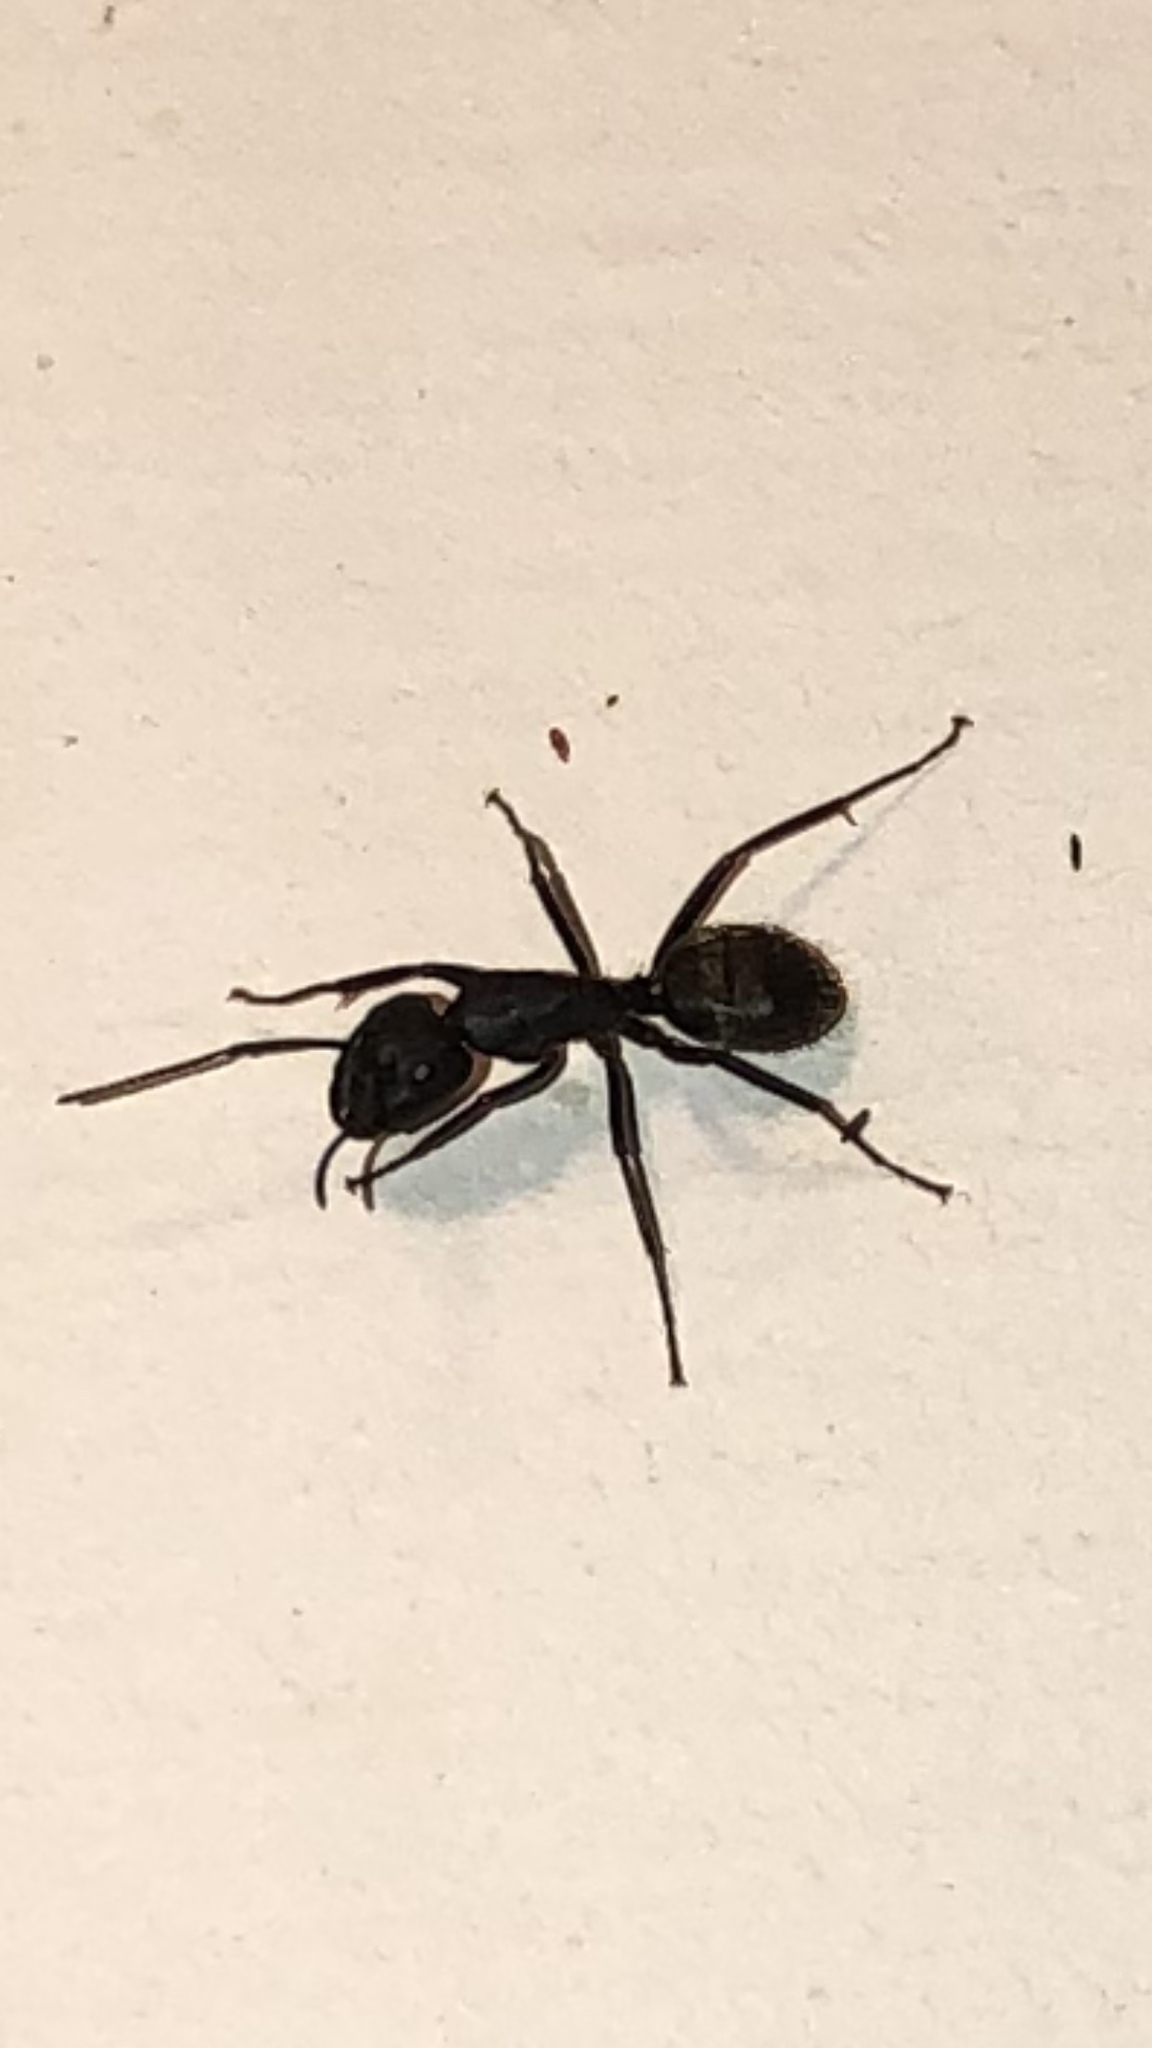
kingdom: Animalia
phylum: Arthropoda
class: Insecta
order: Hymenoptera
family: Formicidae
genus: Camponotus
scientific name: Camponotus pennsylvanicus
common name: Black carpenter ant
